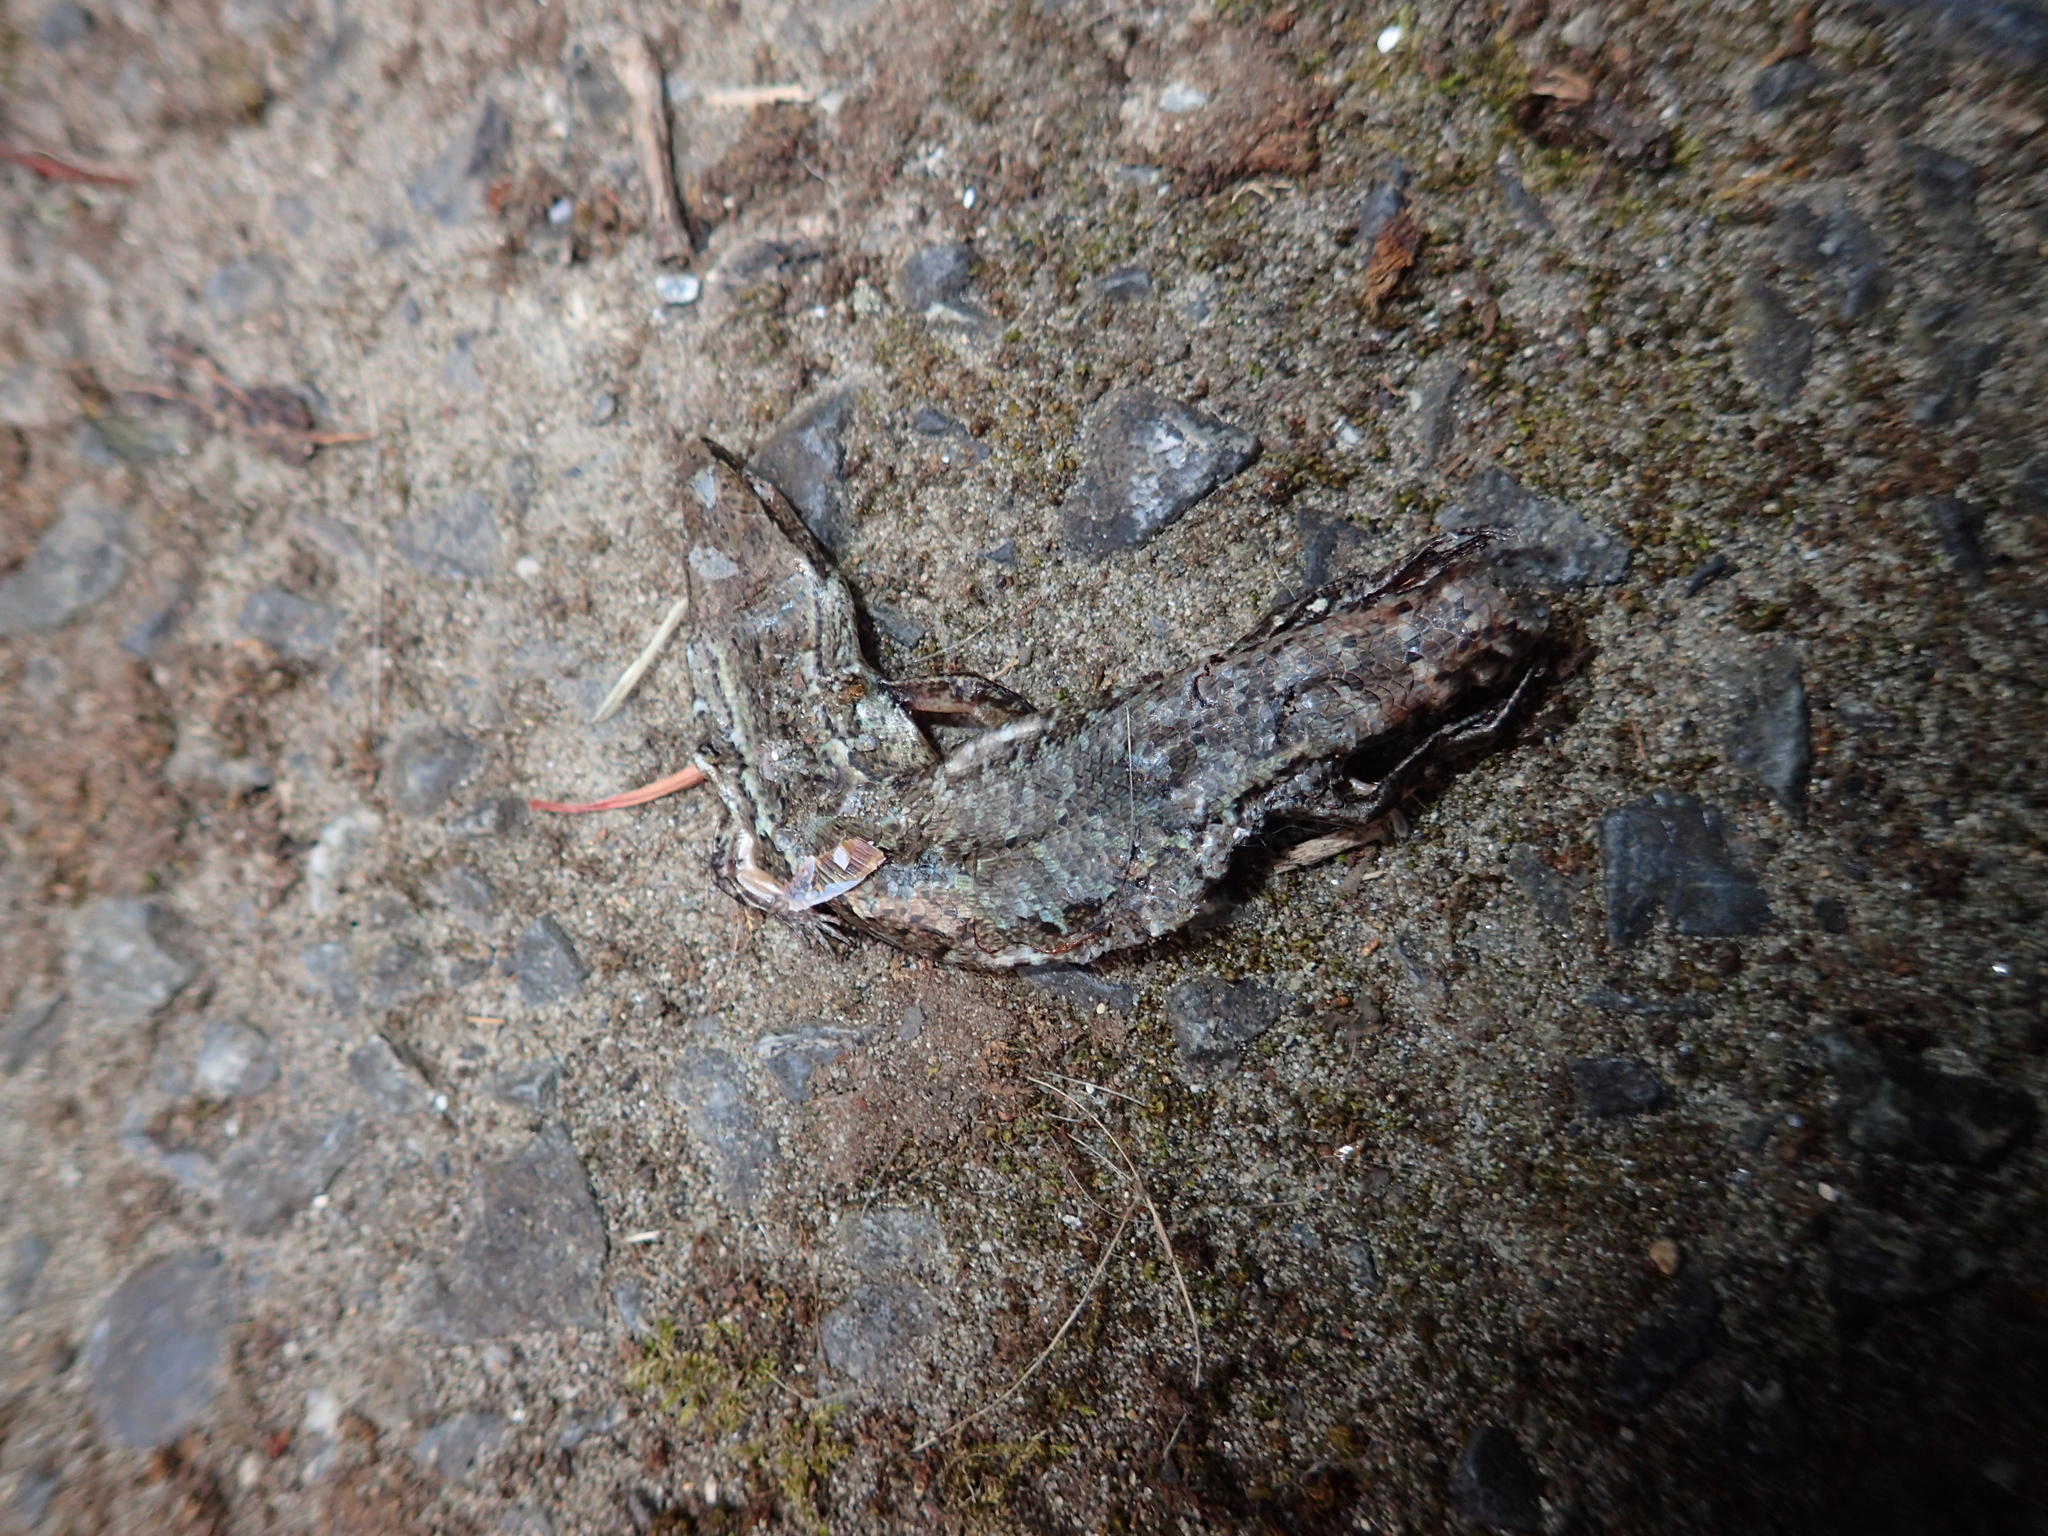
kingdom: Animalia
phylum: Chordata
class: Squamata
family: Scincidae
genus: Oligosoma
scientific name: Oligosoma ornatum
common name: Gray's ornate skink
